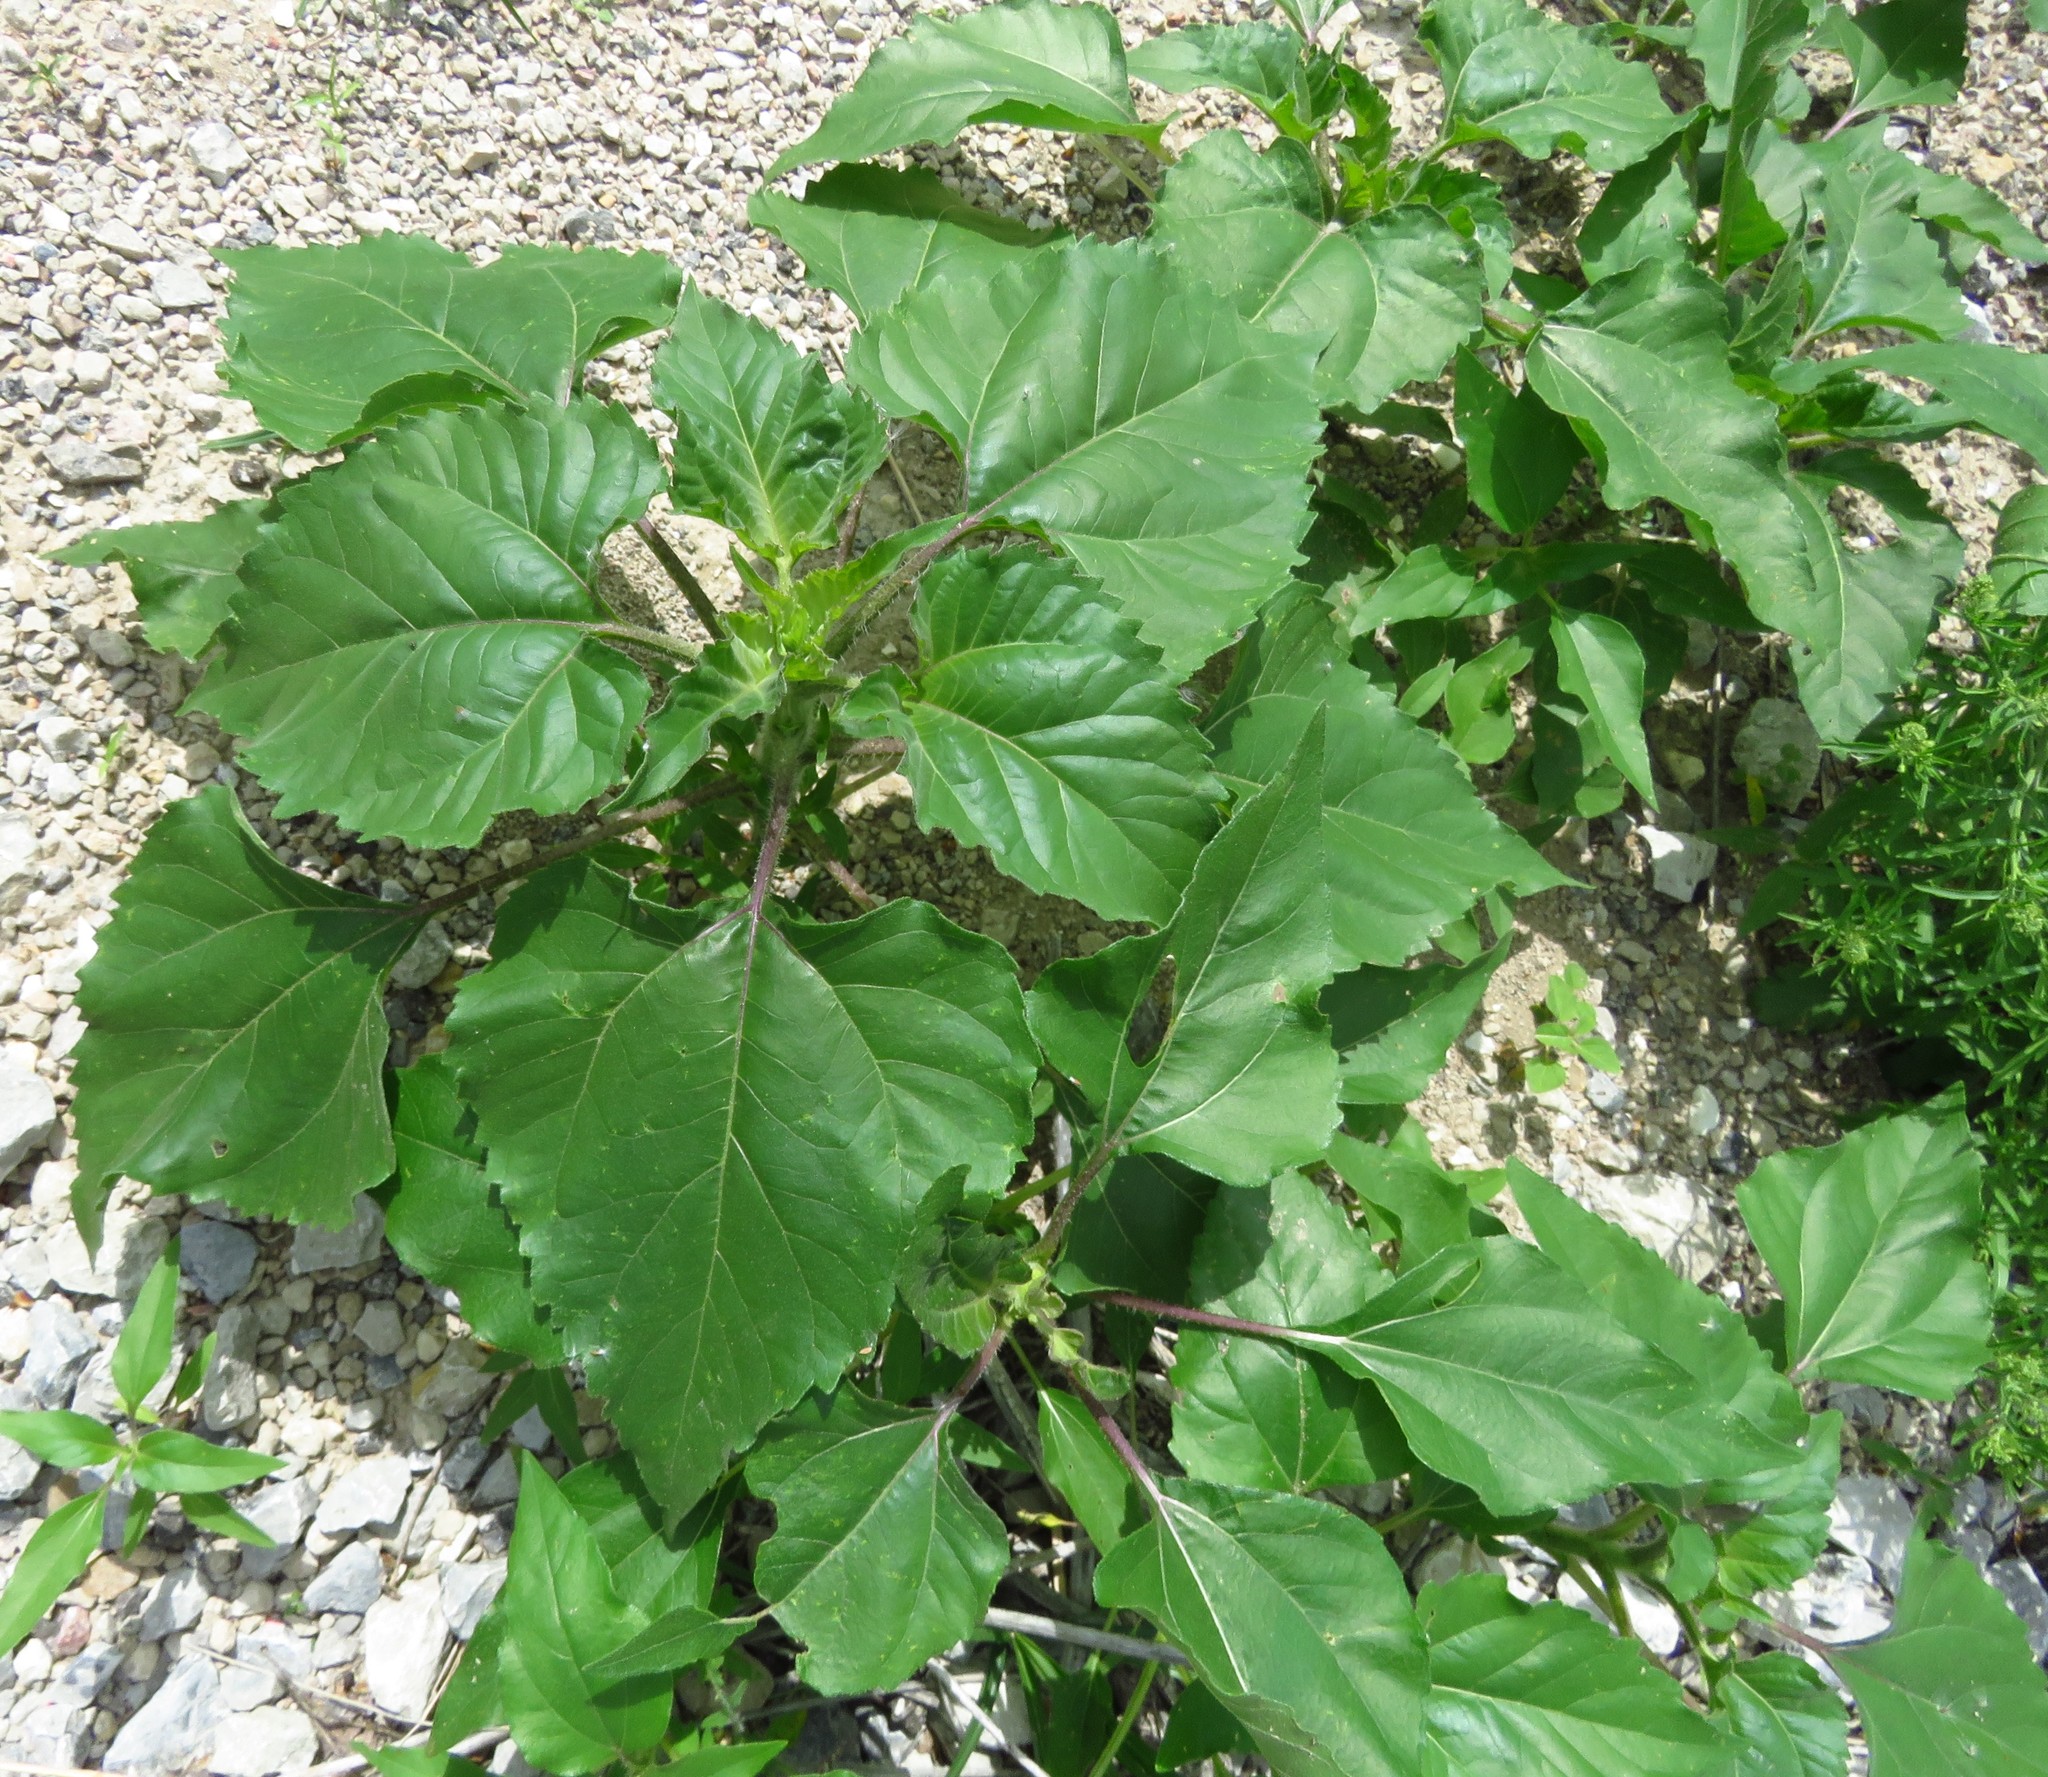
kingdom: Plantae
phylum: Tracheophyta
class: Magnoliopsida
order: Asterales
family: Asteraceae
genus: Helianthus
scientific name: Helianthus annuus
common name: Sunflower
